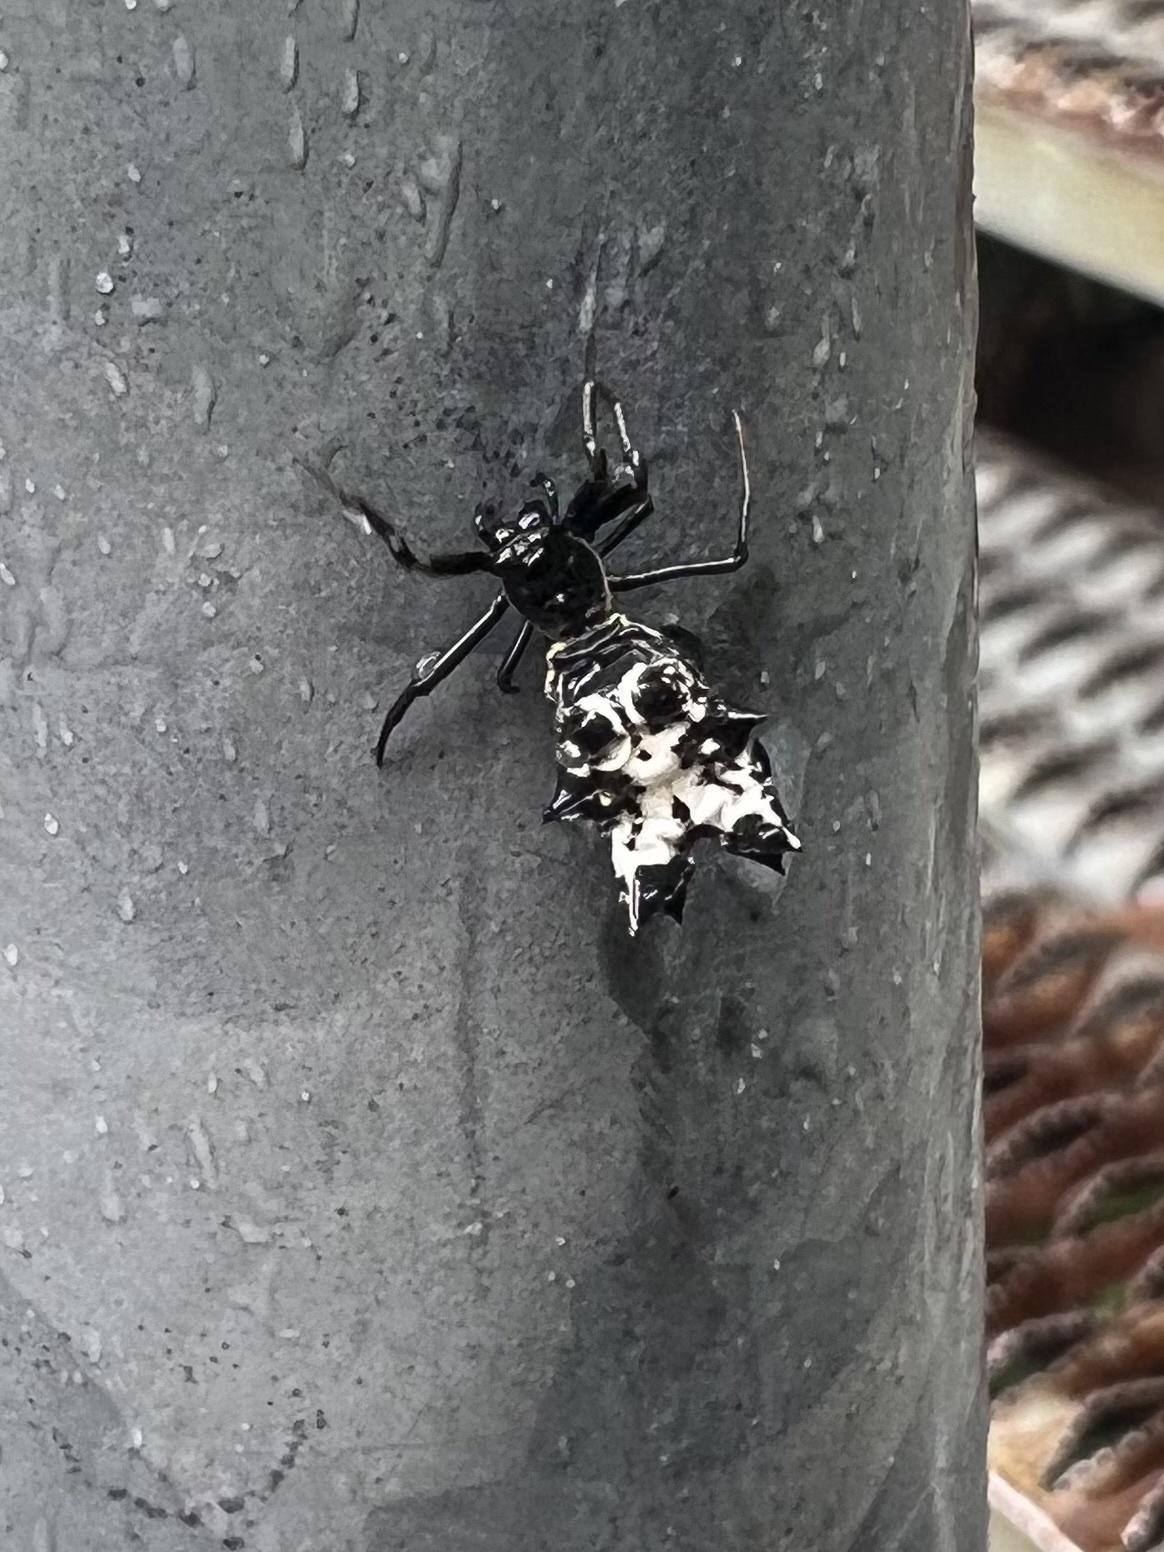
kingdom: Animalia
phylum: Arthropoda
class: Arachnida
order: Araneae
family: Araneidae
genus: Micrathena
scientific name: Micrathena gracilis
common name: Orb weavers
